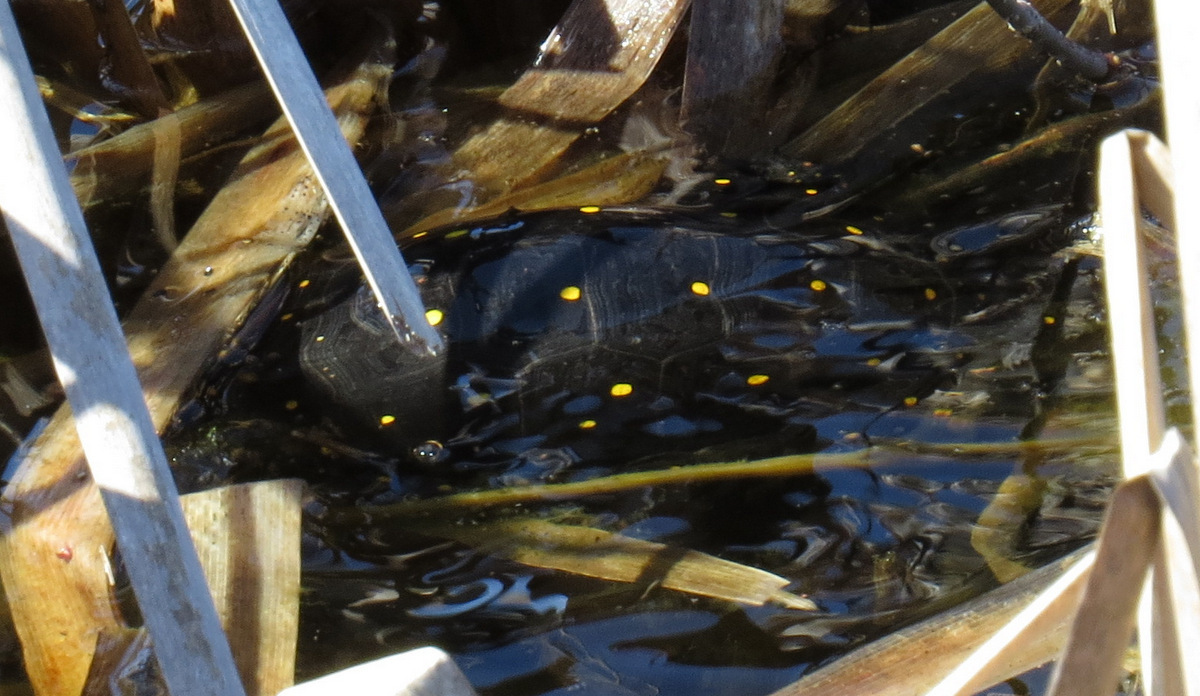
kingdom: Animalia
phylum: Chordata
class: Testudines
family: Emydidae
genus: Clemmys
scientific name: Clemmys guttata
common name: Spotted turtle
